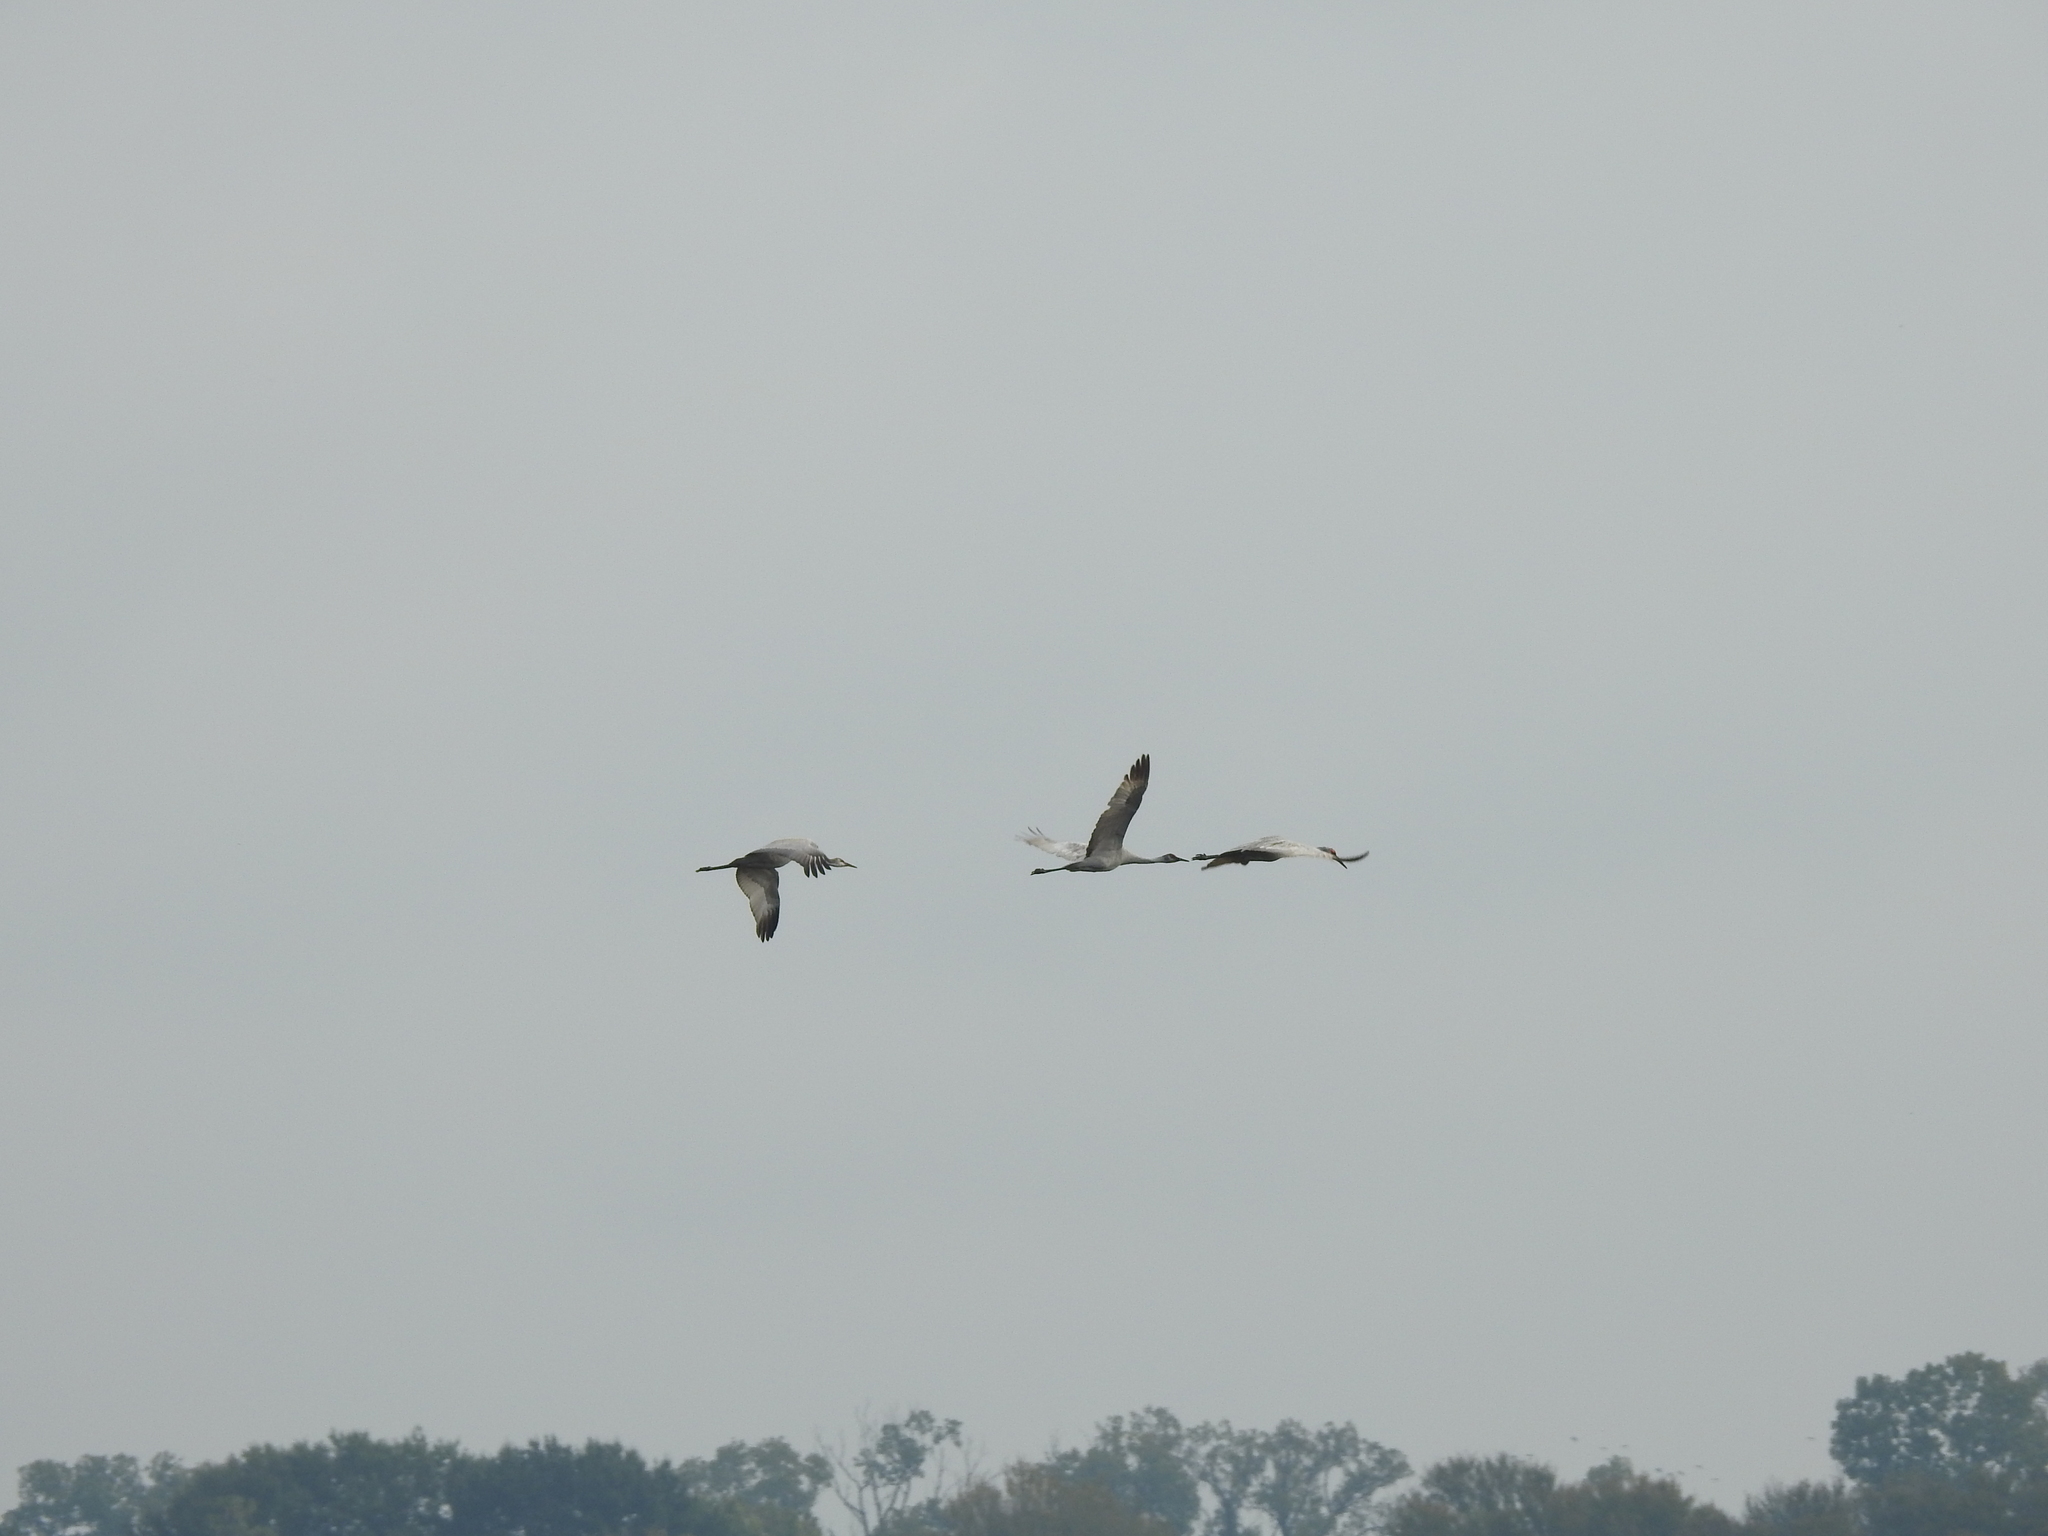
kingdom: Animalia
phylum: Chordata
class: Aves
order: Gruiformes
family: Gruidae
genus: Grus
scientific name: Grus canadensis
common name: Sandhill crane
